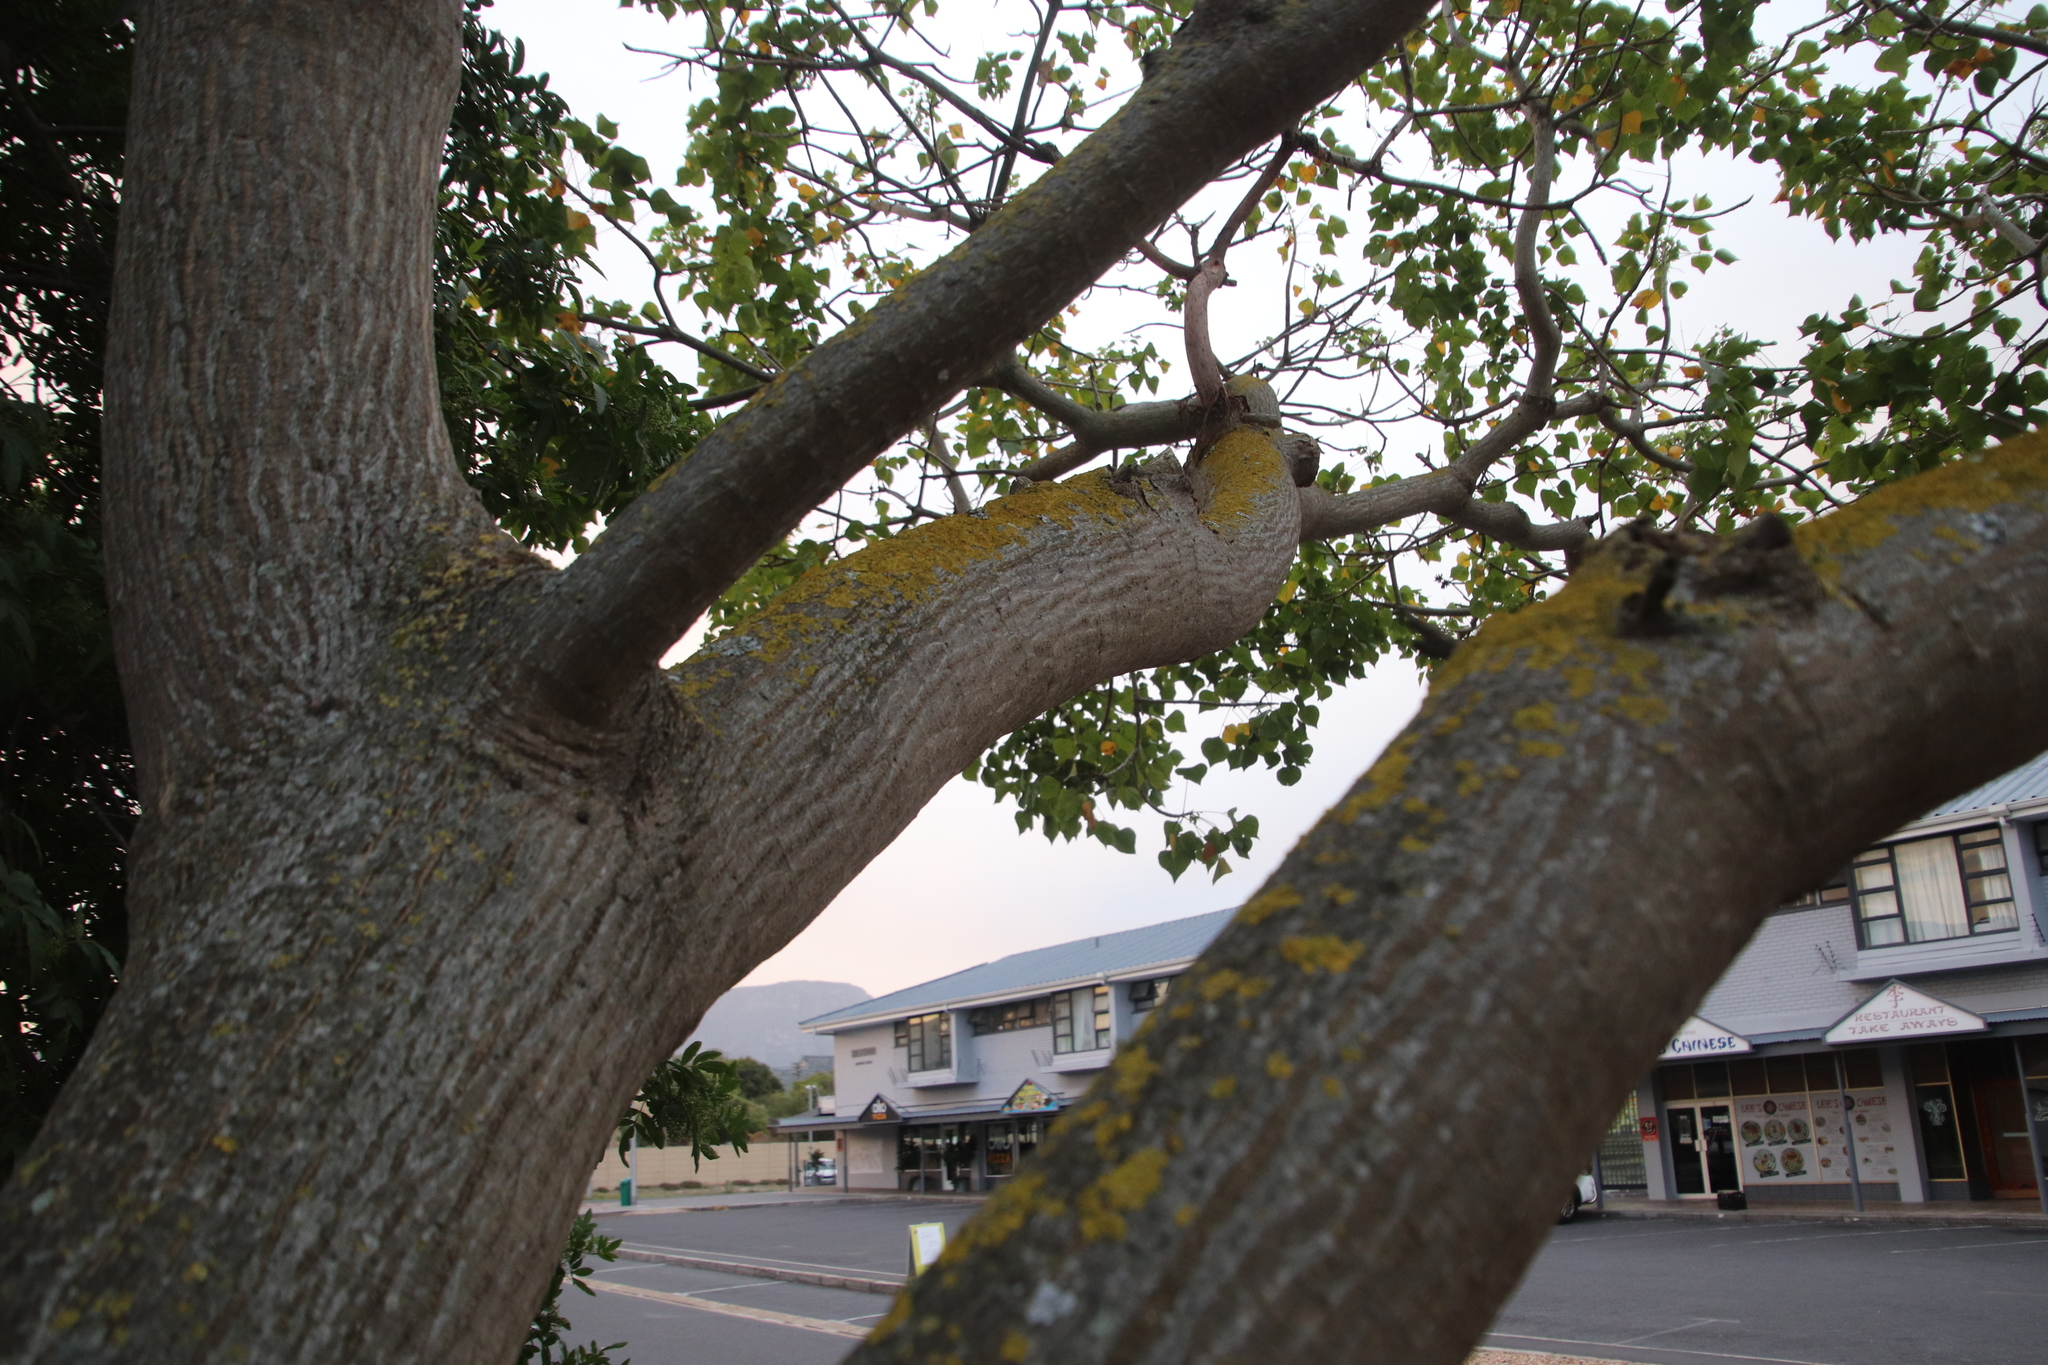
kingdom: Fungi
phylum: Ascomycota
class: Lecanoromycetes
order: Teloschistales
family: Teloschistaceae
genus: Xanthoria
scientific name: Xanthoria parietina
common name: Common orange lichen
